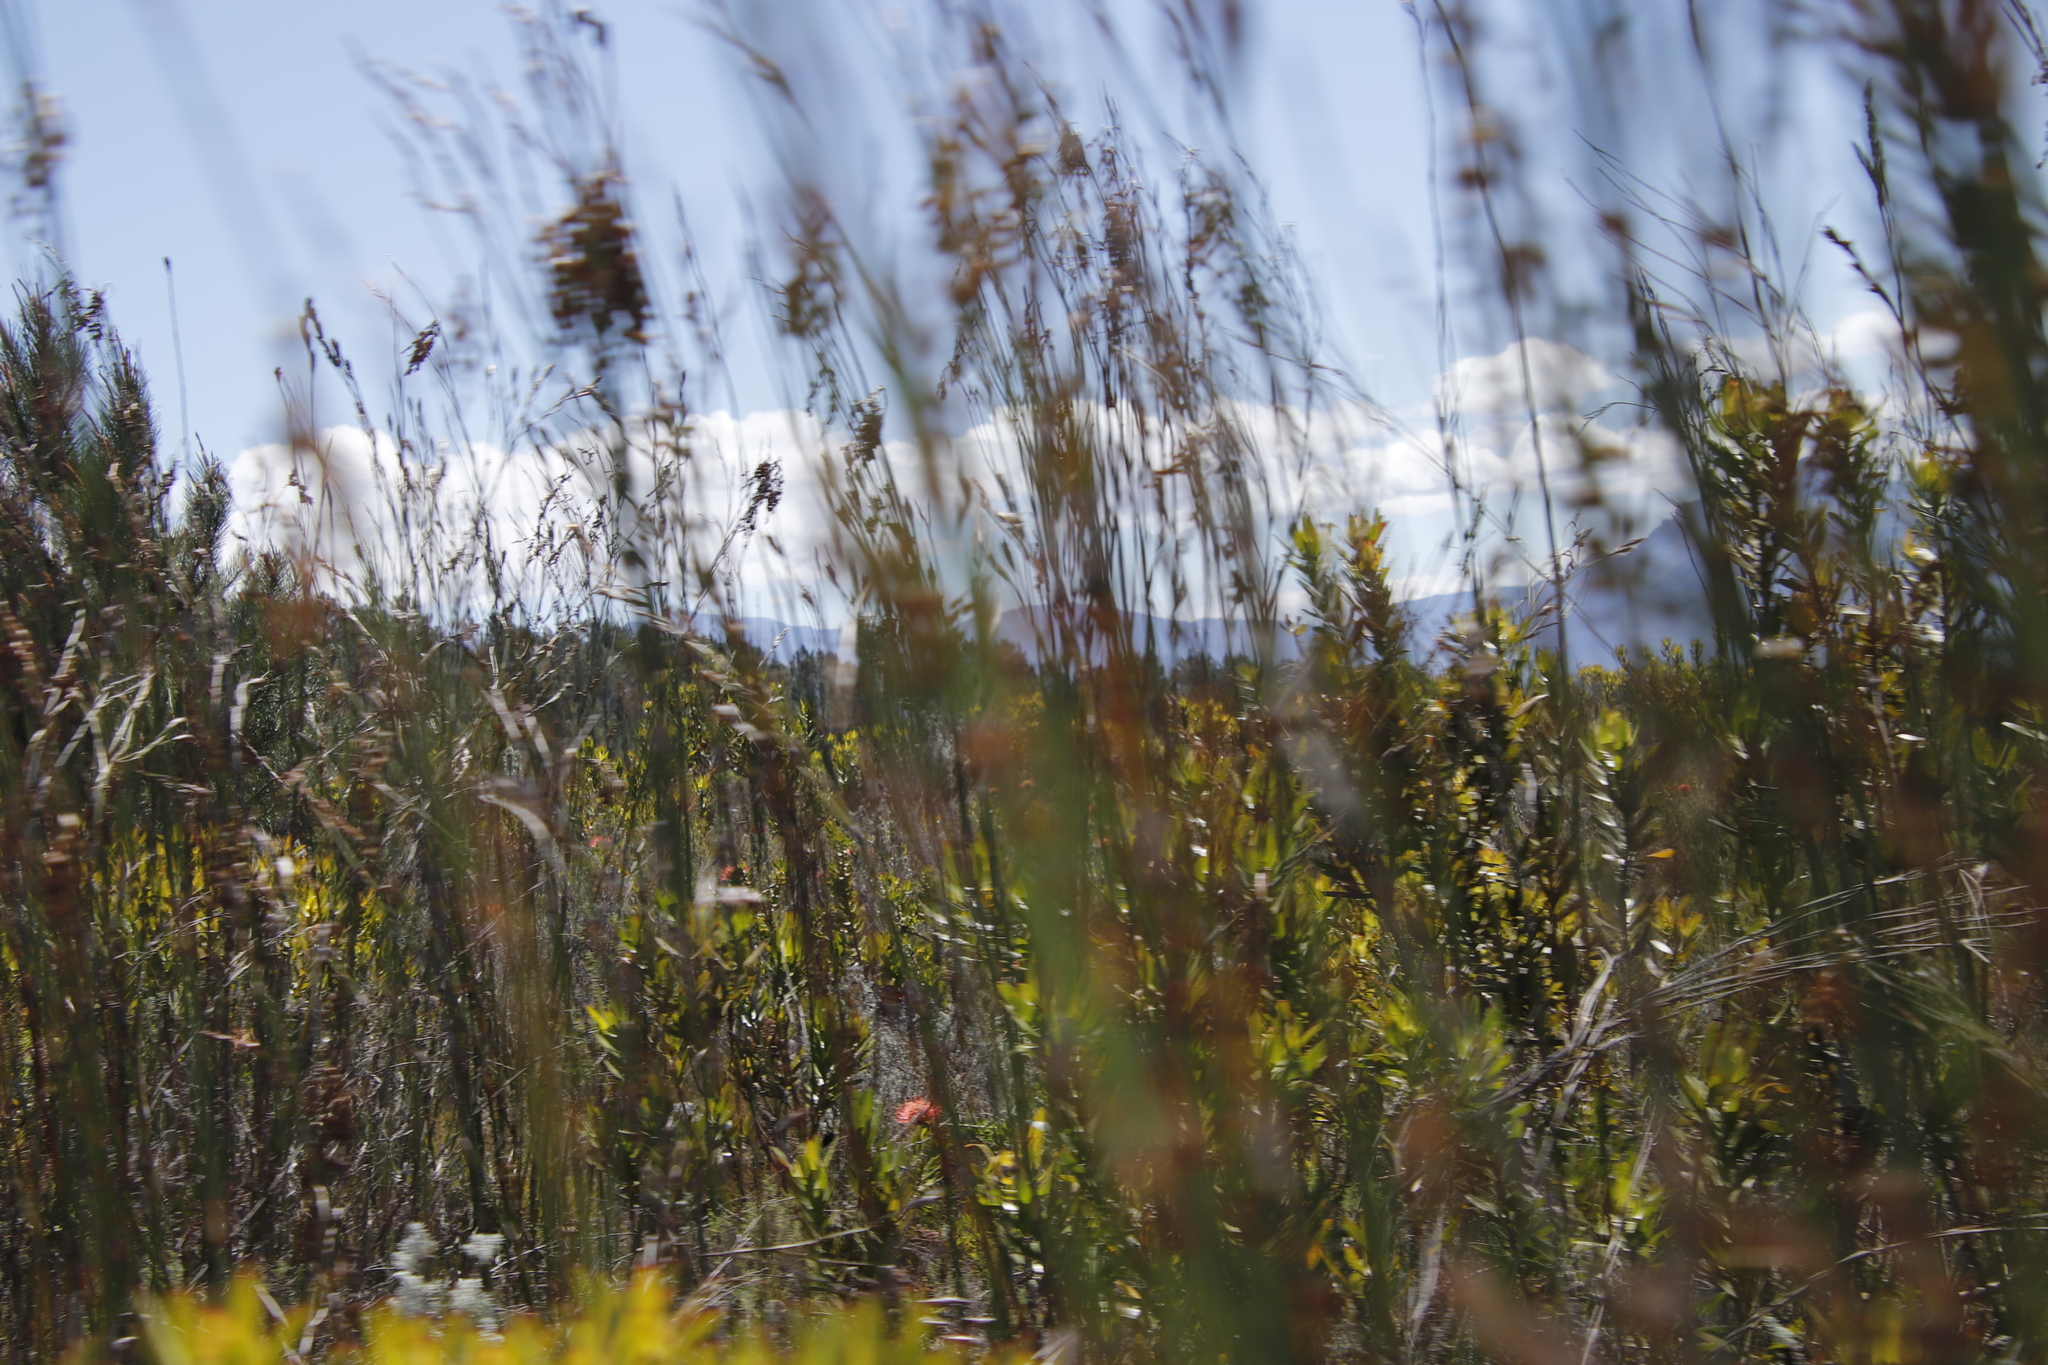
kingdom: Plantae
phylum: Tracheophyta
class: Magnoliopsida
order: Proteales
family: Proteaceae
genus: Leucospermum
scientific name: Leucospermum cordifolium
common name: Red pincushion-protea
